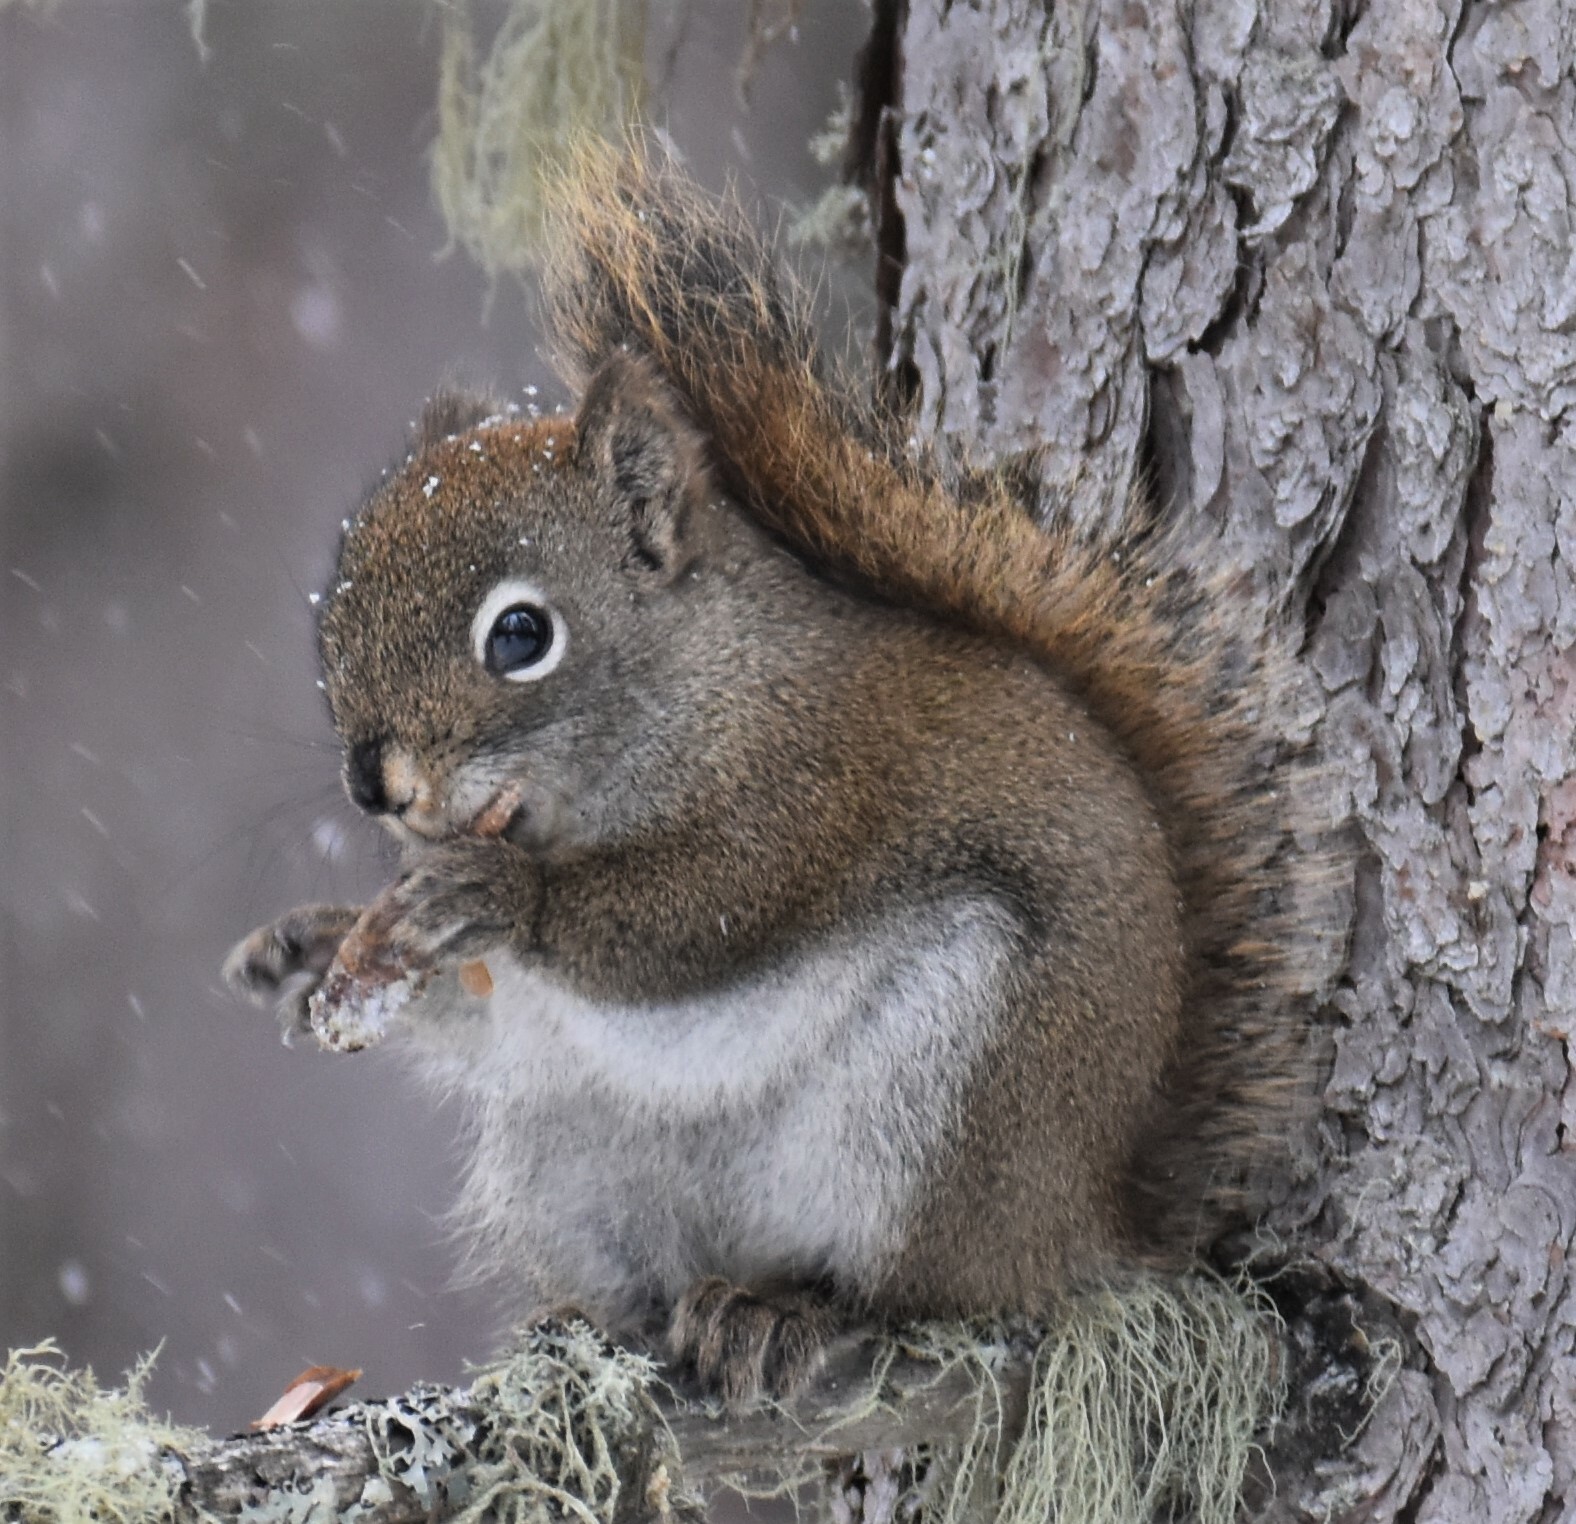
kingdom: Animalia
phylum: Chordata
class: Mammalia
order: Rodentia
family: Sciuridae
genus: Tamiasciurus
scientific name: Tamiasciurus hudsonicus
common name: Red squirrel
